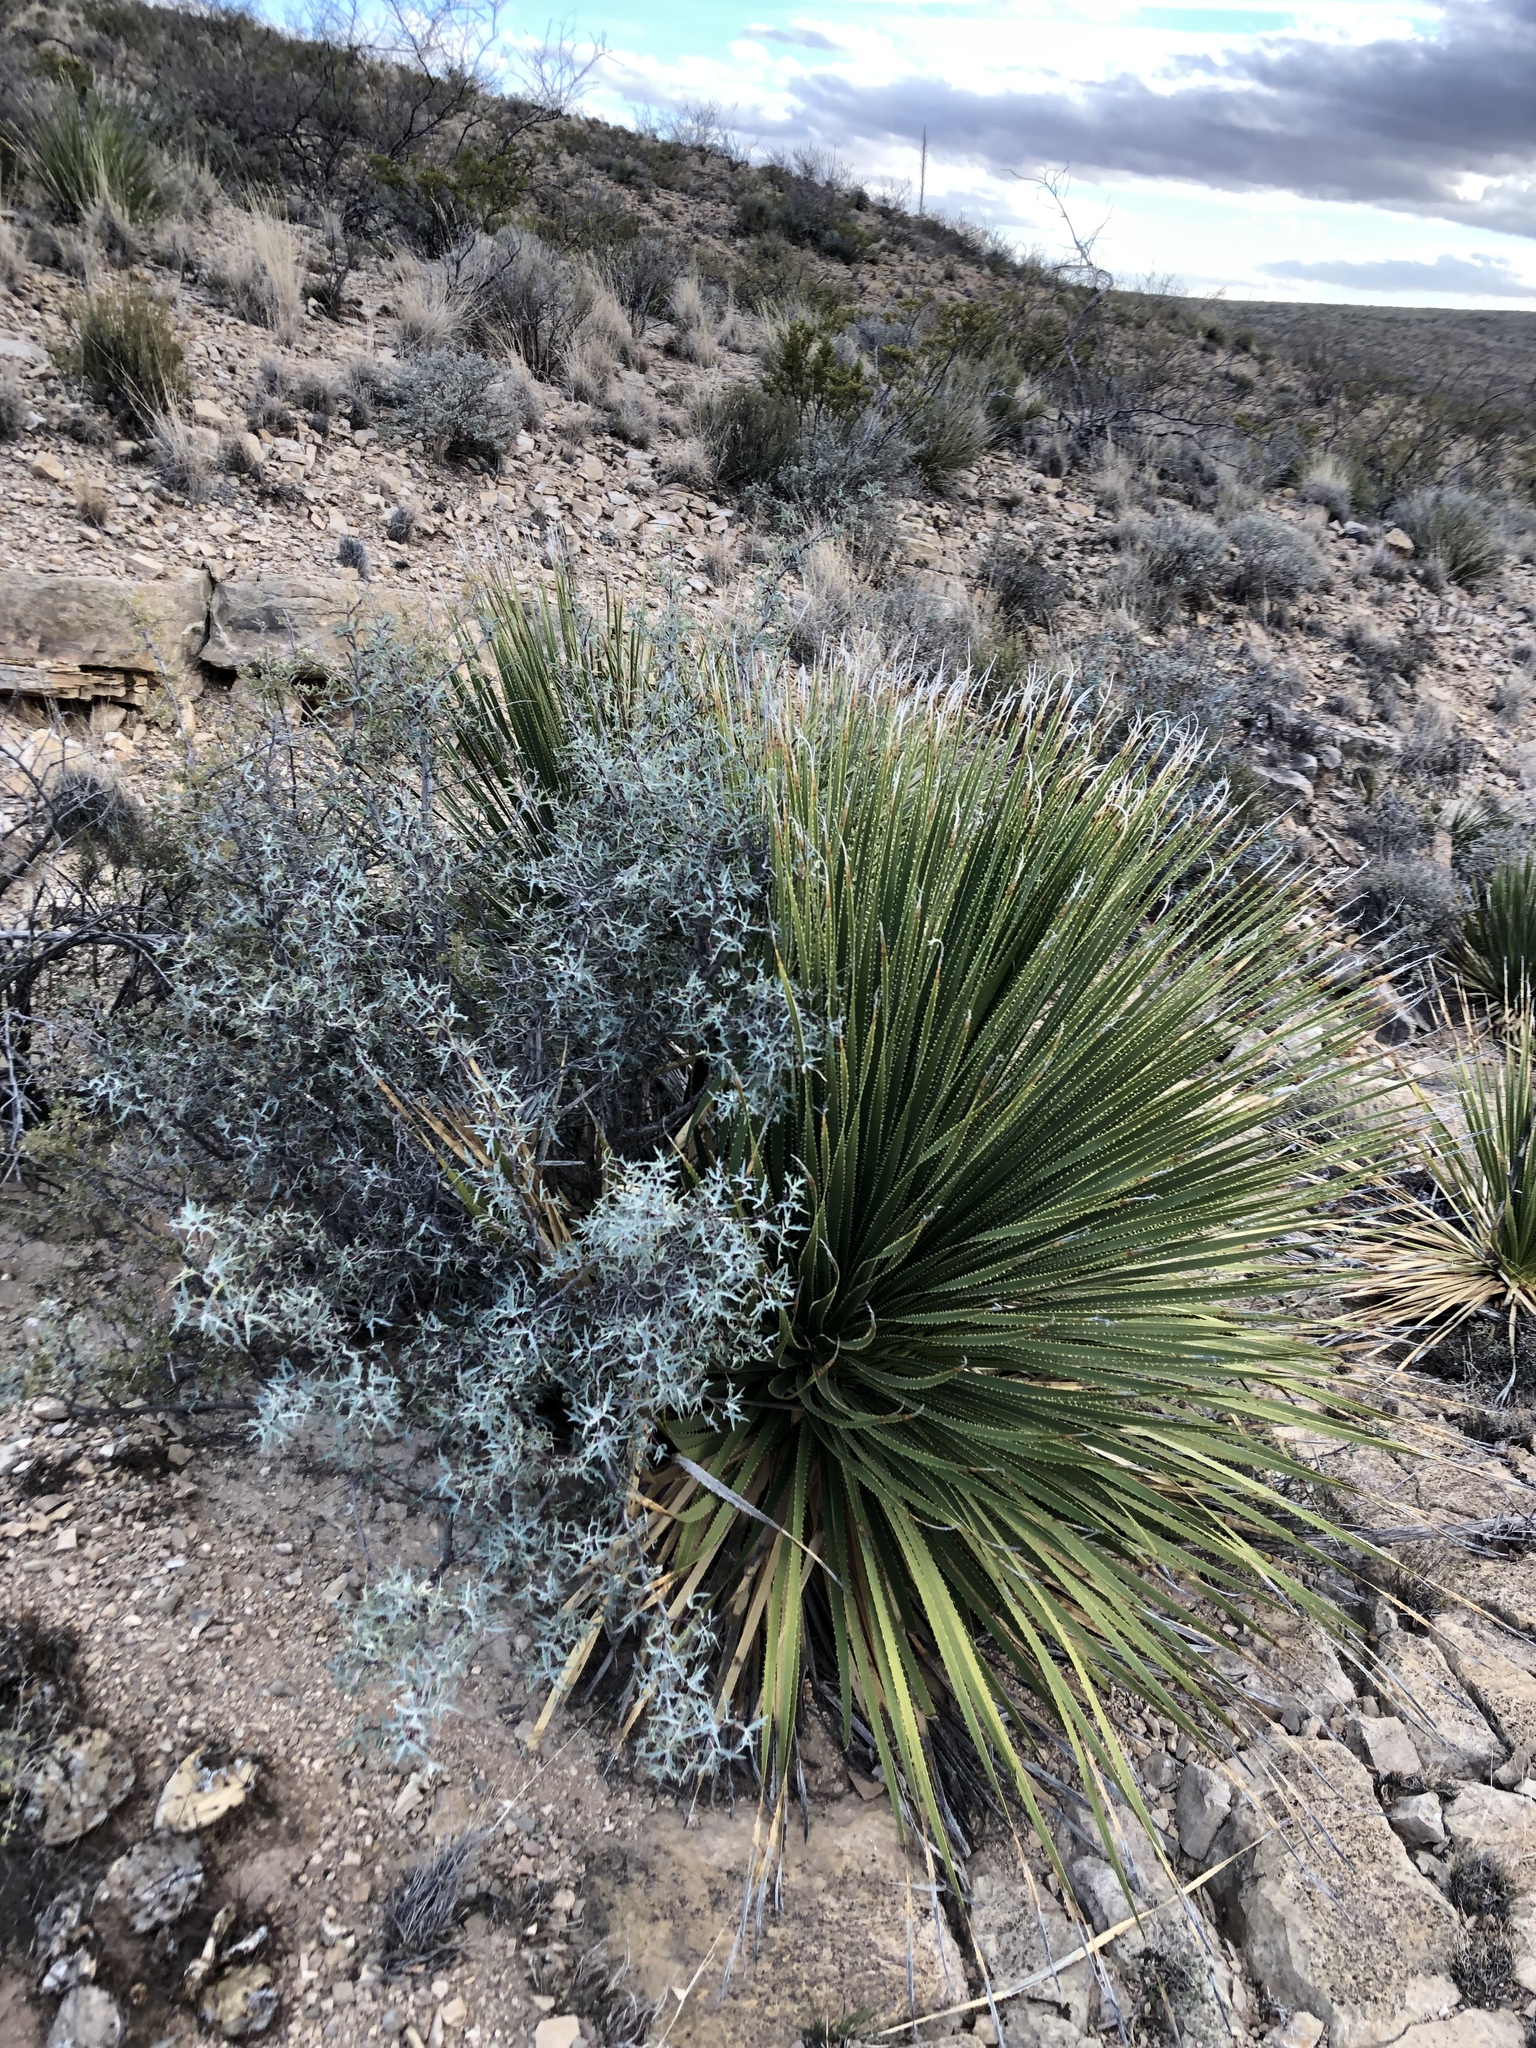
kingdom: Plantae
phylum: Tracheophyta
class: Liliopsida
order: Asparagales
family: Asparagaceae
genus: Dasylirion
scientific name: Dasylirion wheeleri
